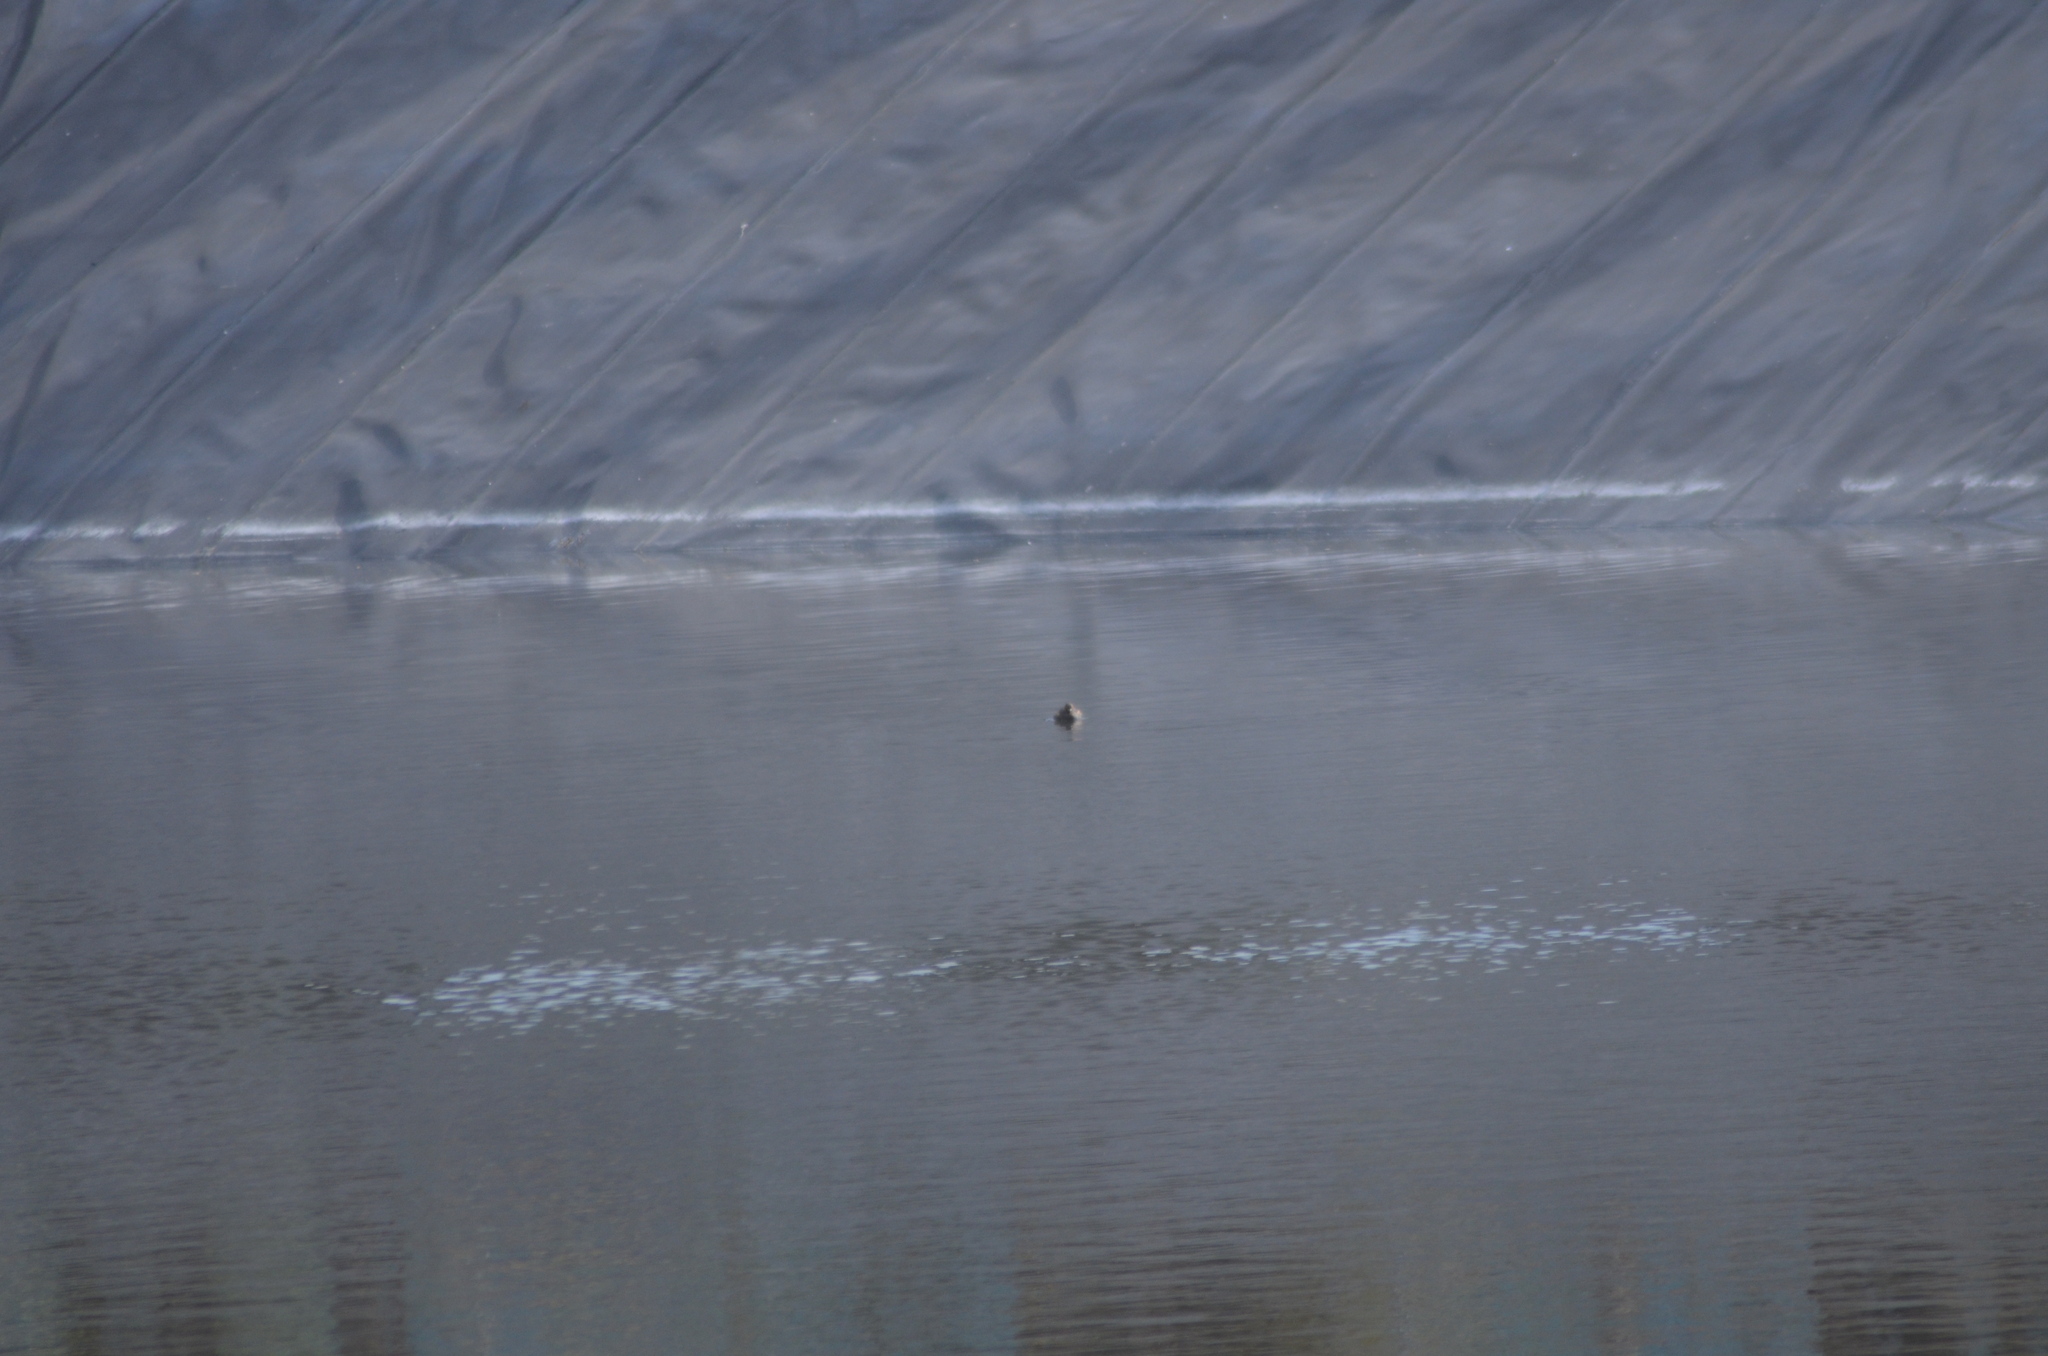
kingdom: Animalia
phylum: Chordata
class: Aves
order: Podicipediformes
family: Podicipedidae
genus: Tachybaptus
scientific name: Tachybaptus ruficollis
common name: Little grebe
